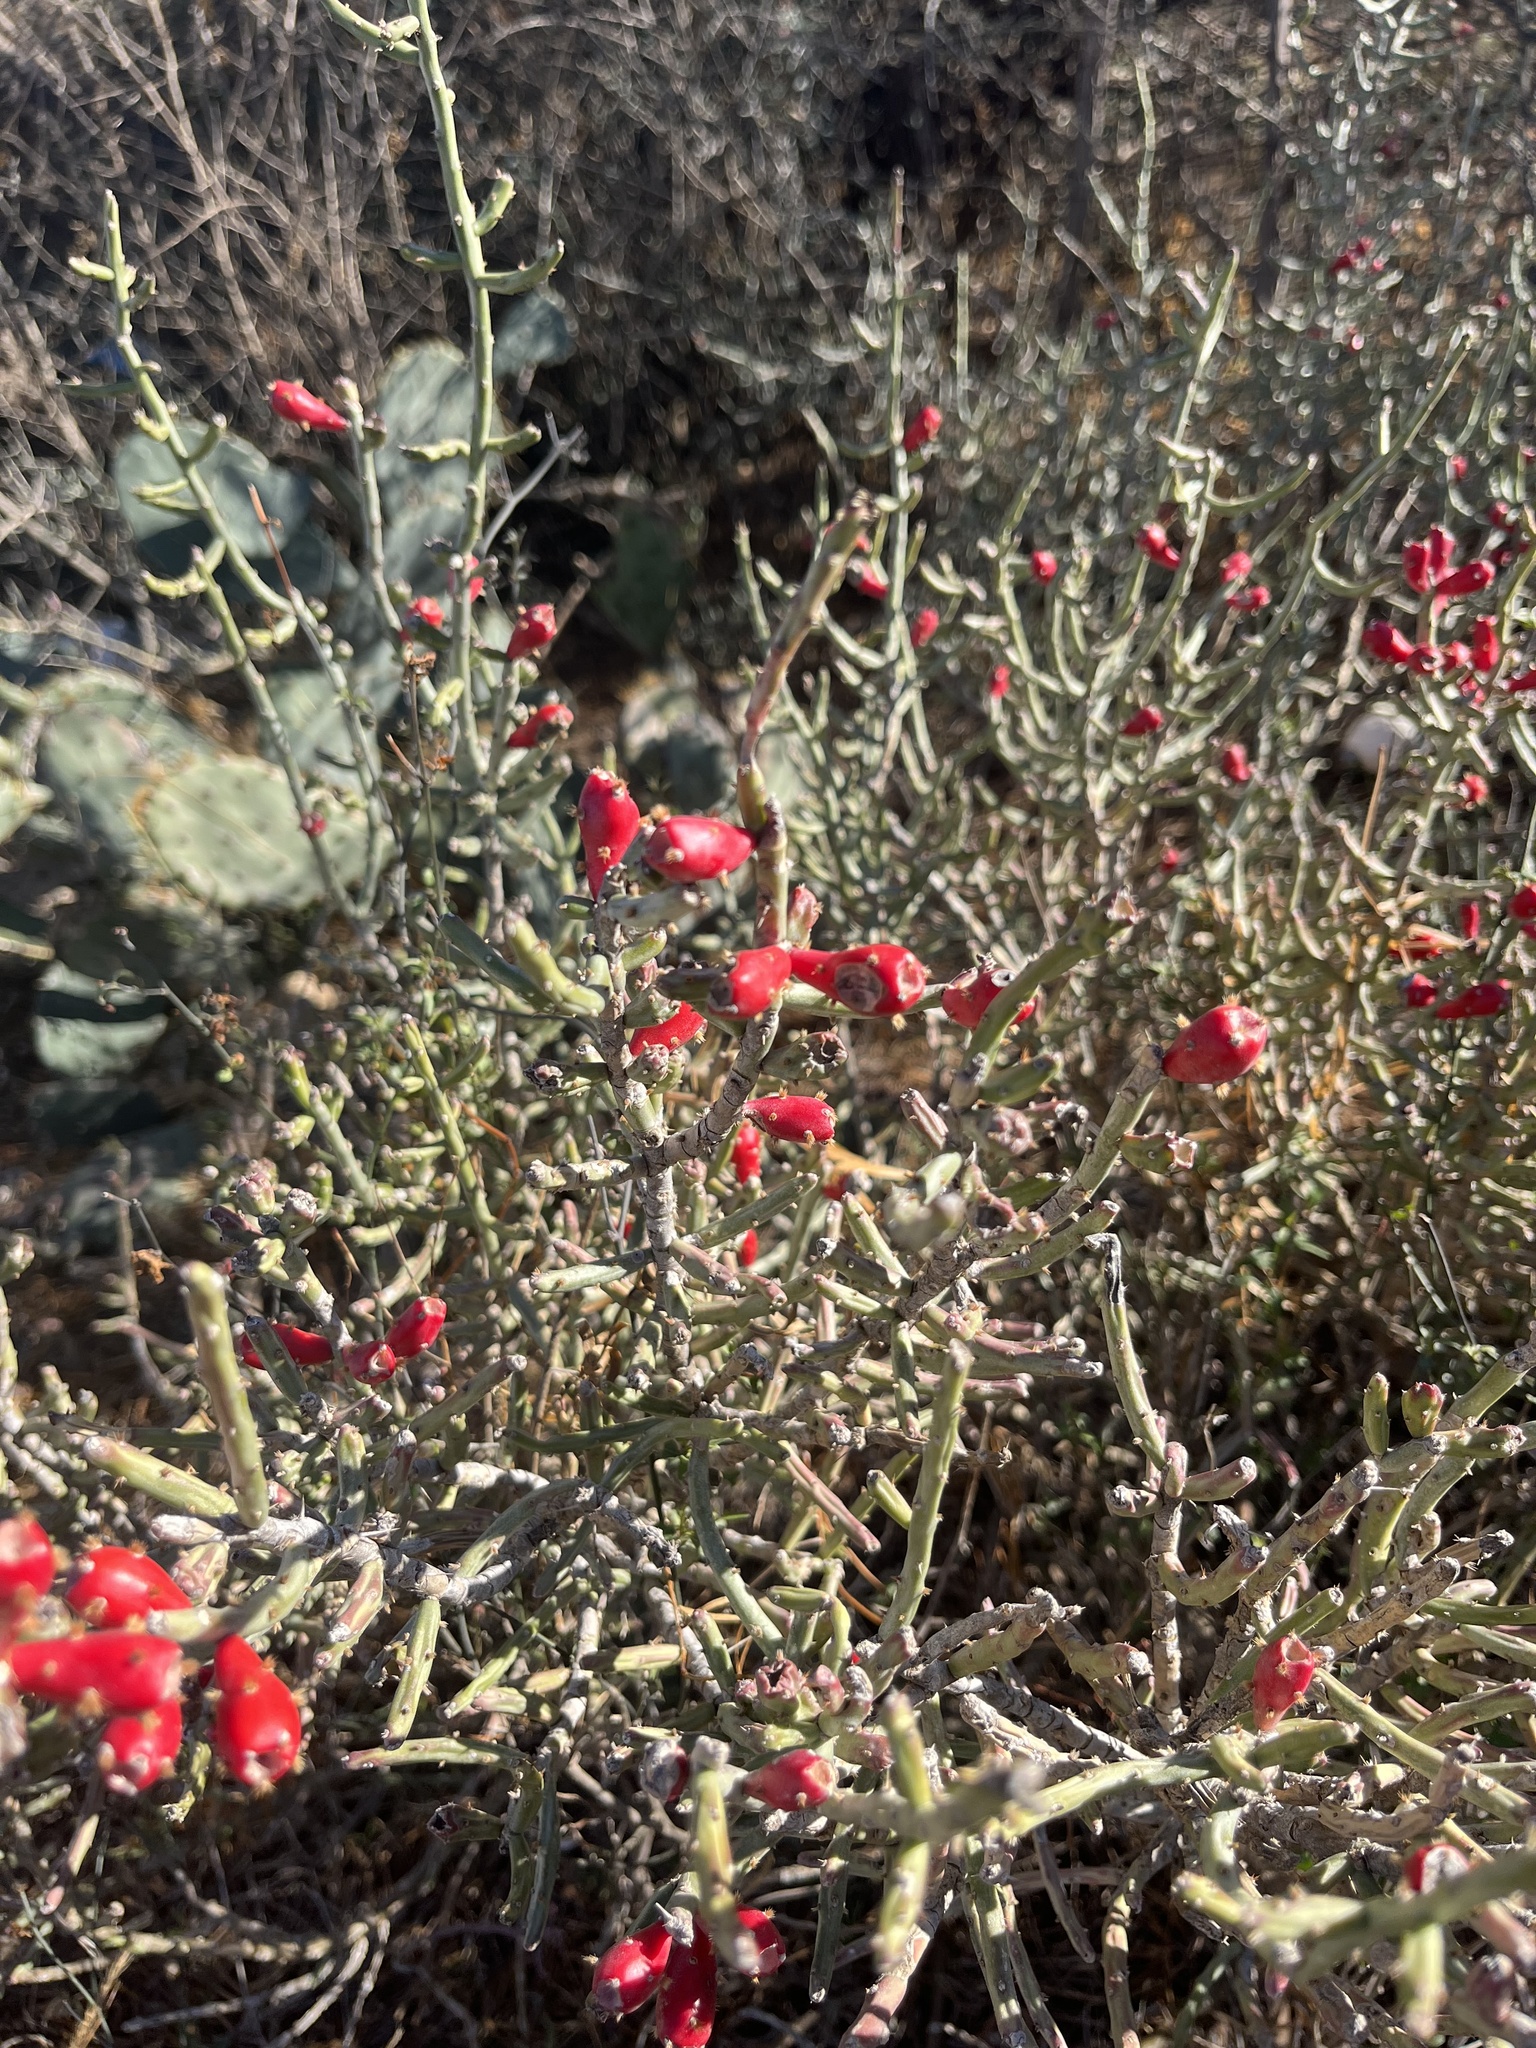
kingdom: Plantae
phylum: Tracheophyta
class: Magnoliopsida
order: Caryophyllales
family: Cactaceae
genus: Cylindropuntia
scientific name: Cylindropuntia leptocaulis
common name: Christmas cactus
